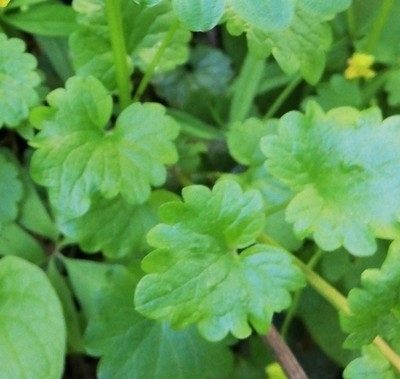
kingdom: Plantae
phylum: Tracheophyta
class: Magnoliopsida
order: Lamiales
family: Lamiaceae
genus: Glechoma
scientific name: Glechoma hederacea
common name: Ground ivy
